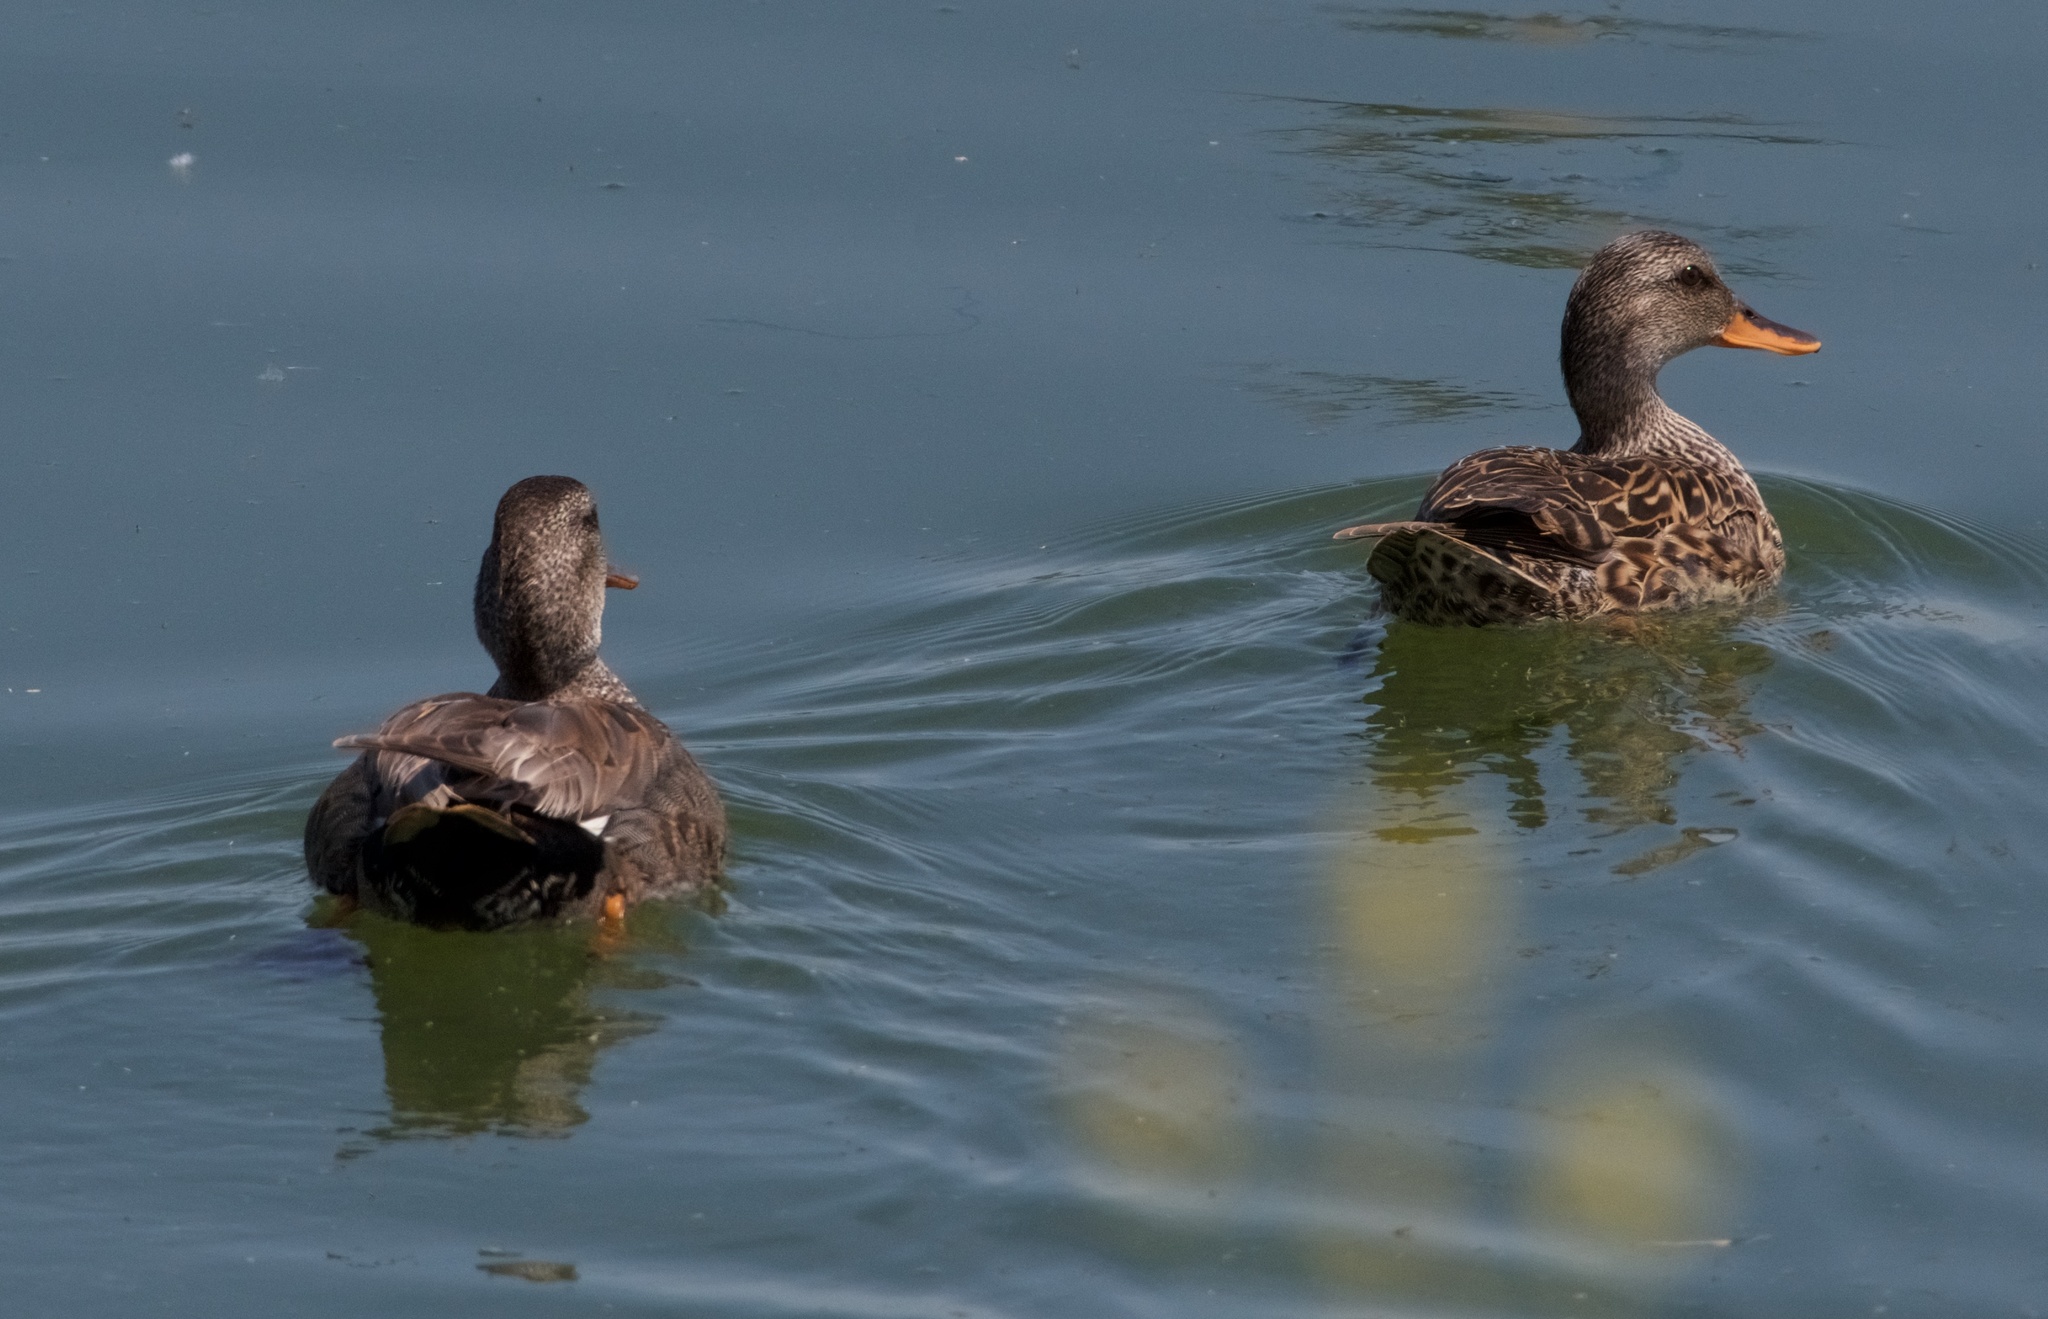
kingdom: Animalia
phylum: Chordata
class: Aves
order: Anseriformes
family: Anatidae
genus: Mareca
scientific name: Mareca strepera
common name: Gadwall
